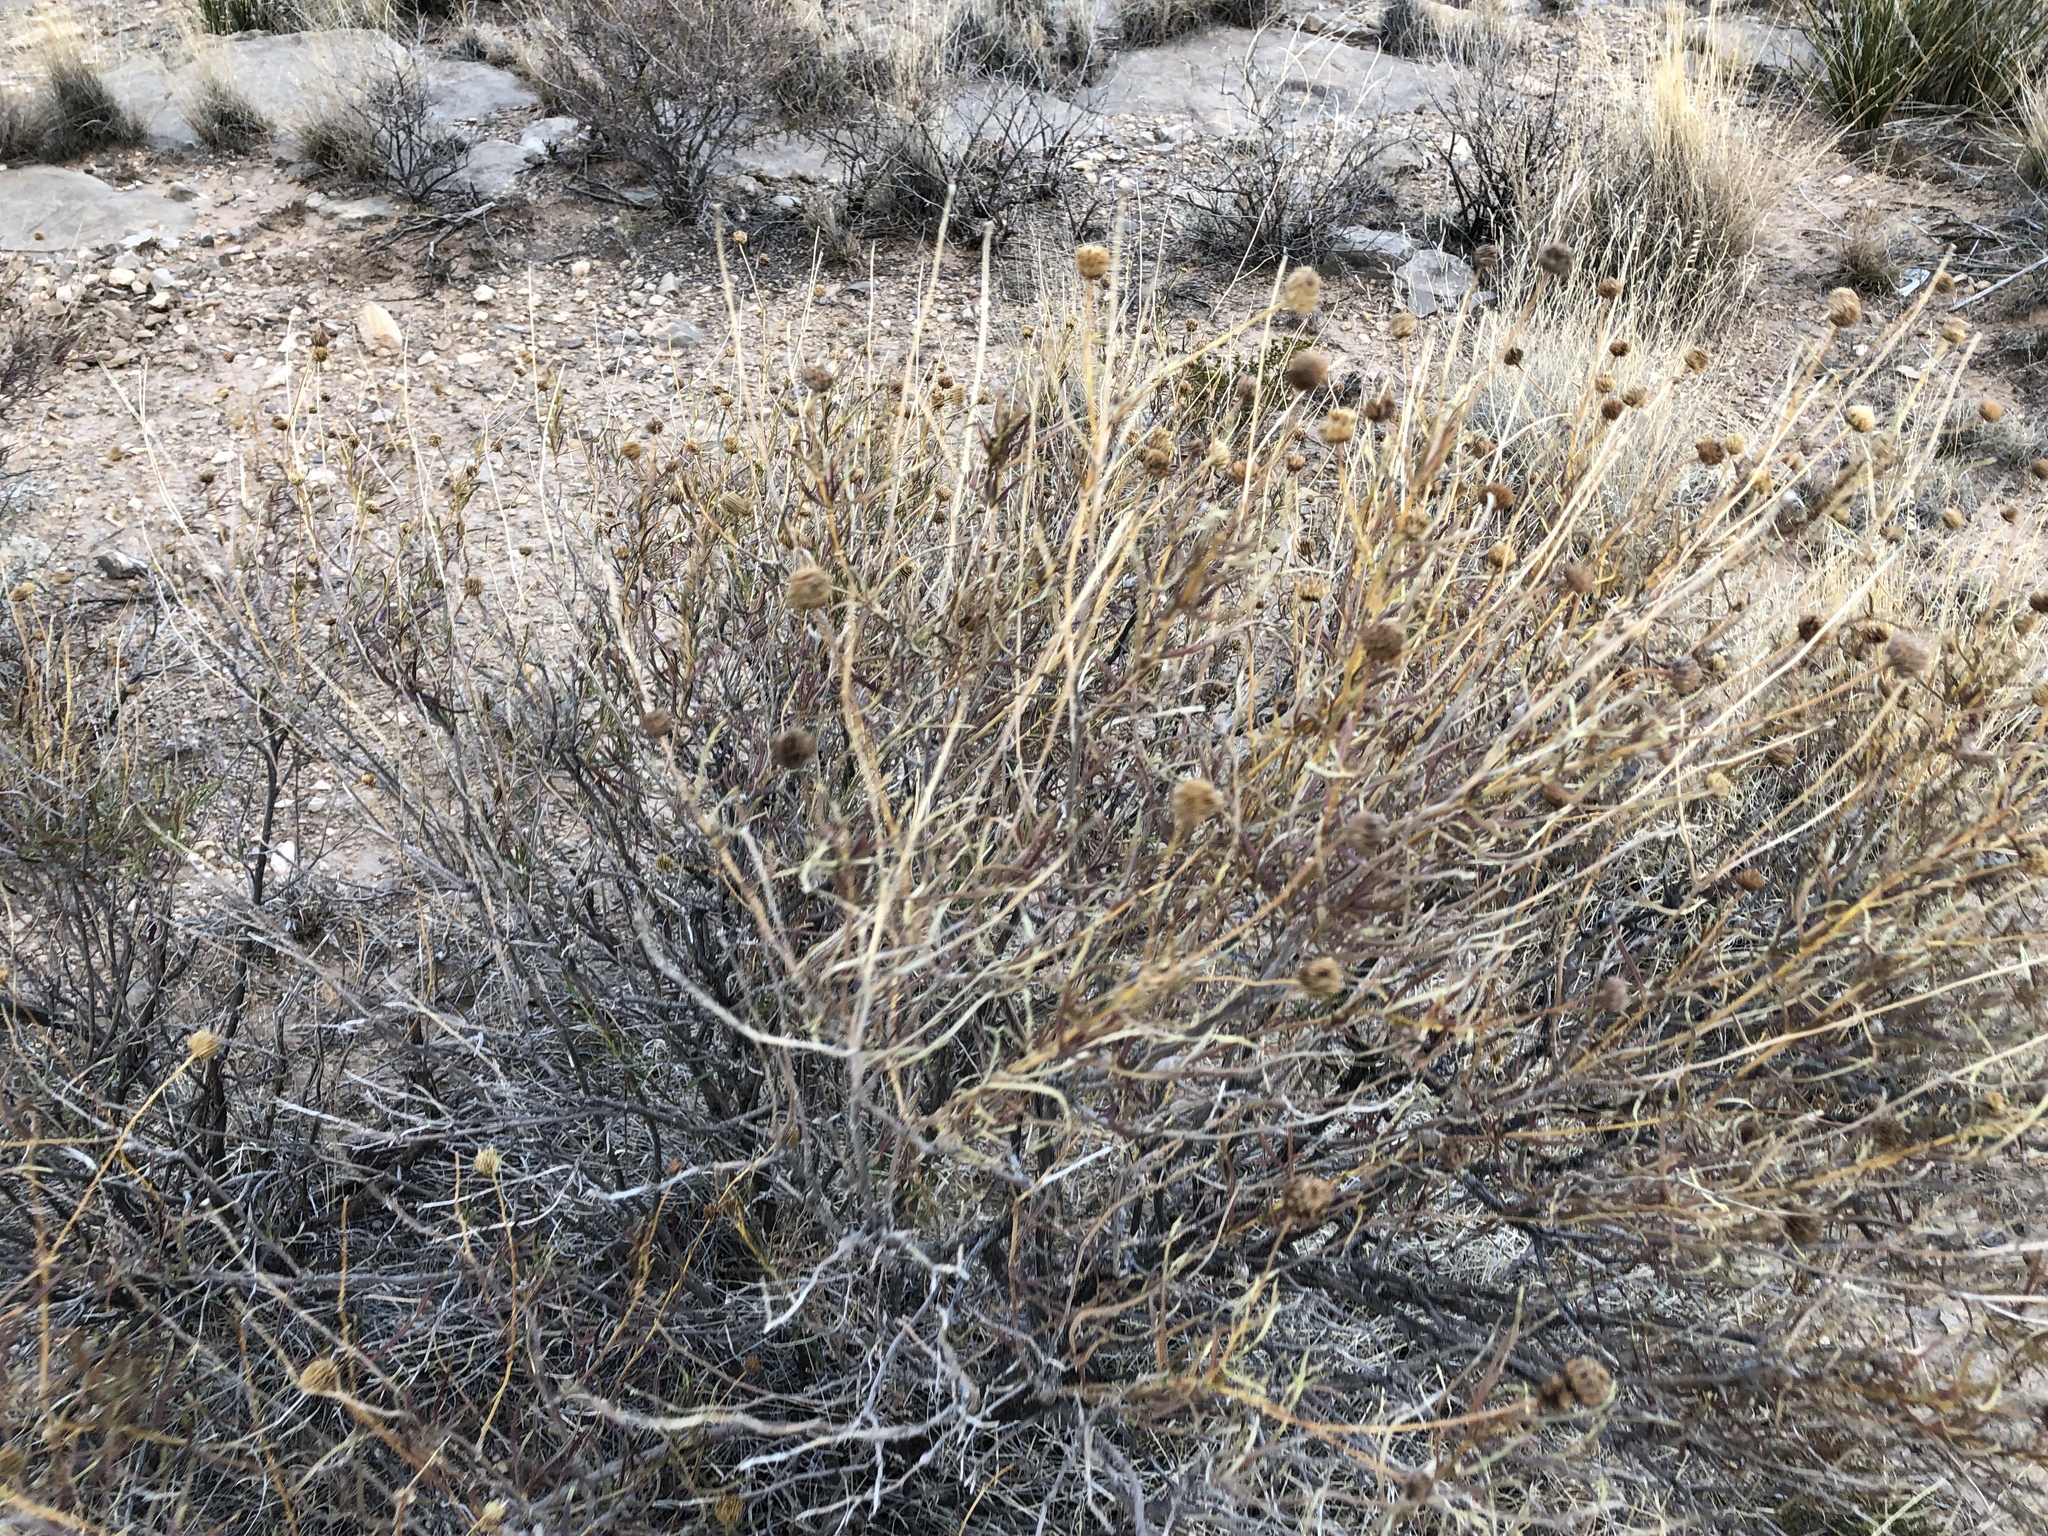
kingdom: Plantae
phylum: Tracheophyta
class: Magnoliopsida
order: Asterales
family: Asteraceae
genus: Sidneya
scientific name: Sidneya tenuifolia
